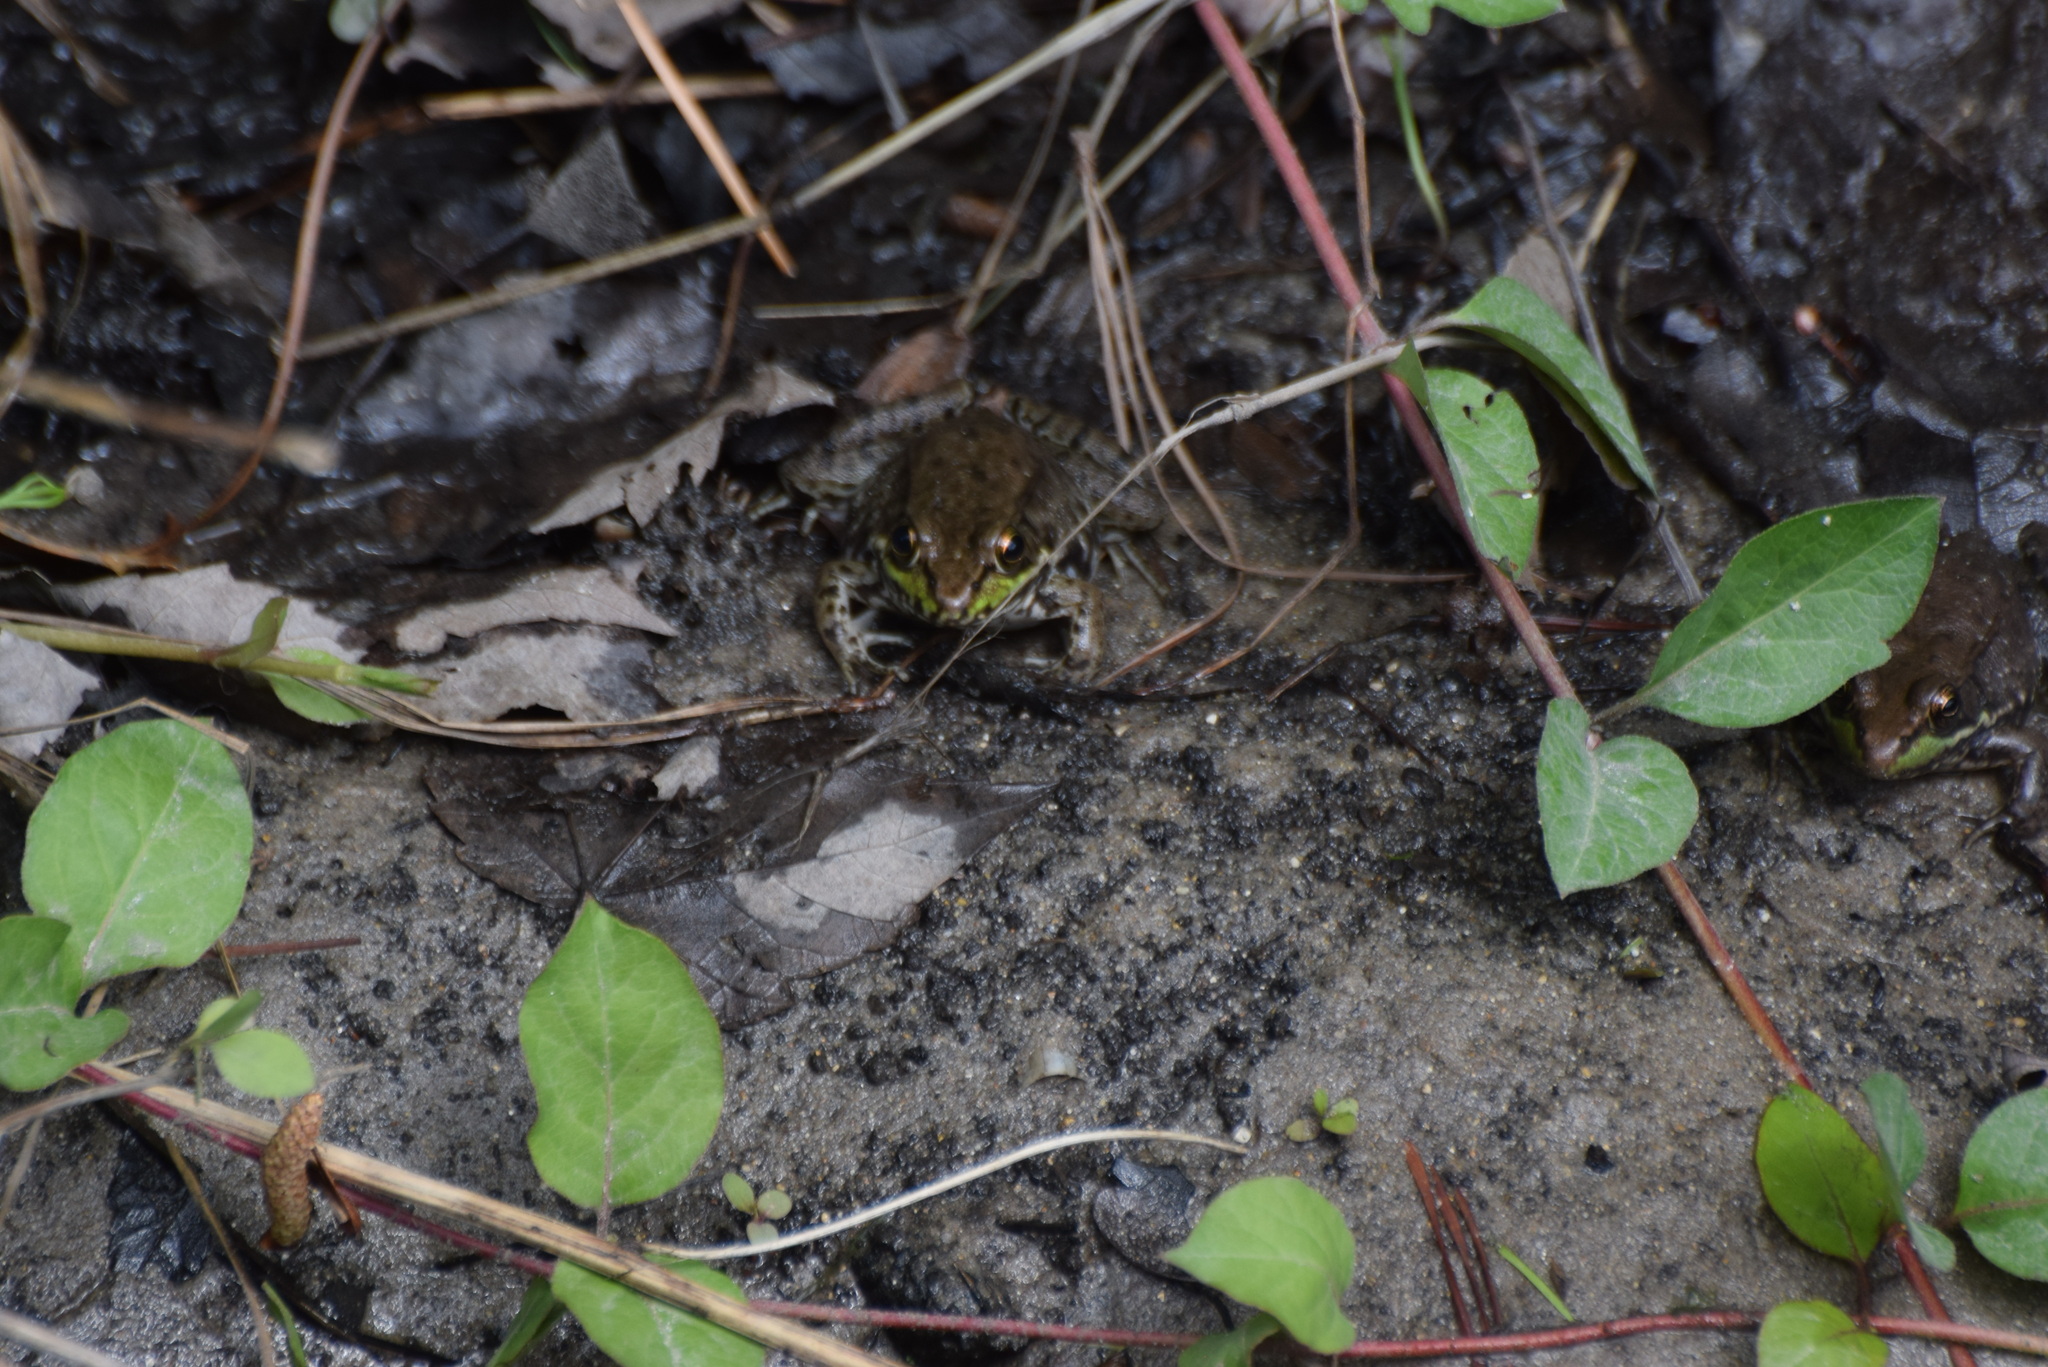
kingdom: Animalia
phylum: Chordata
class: Amphibia
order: Anura
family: Ranidae
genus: Lithobates
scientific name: Lithobates clamitans
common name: Green frog
